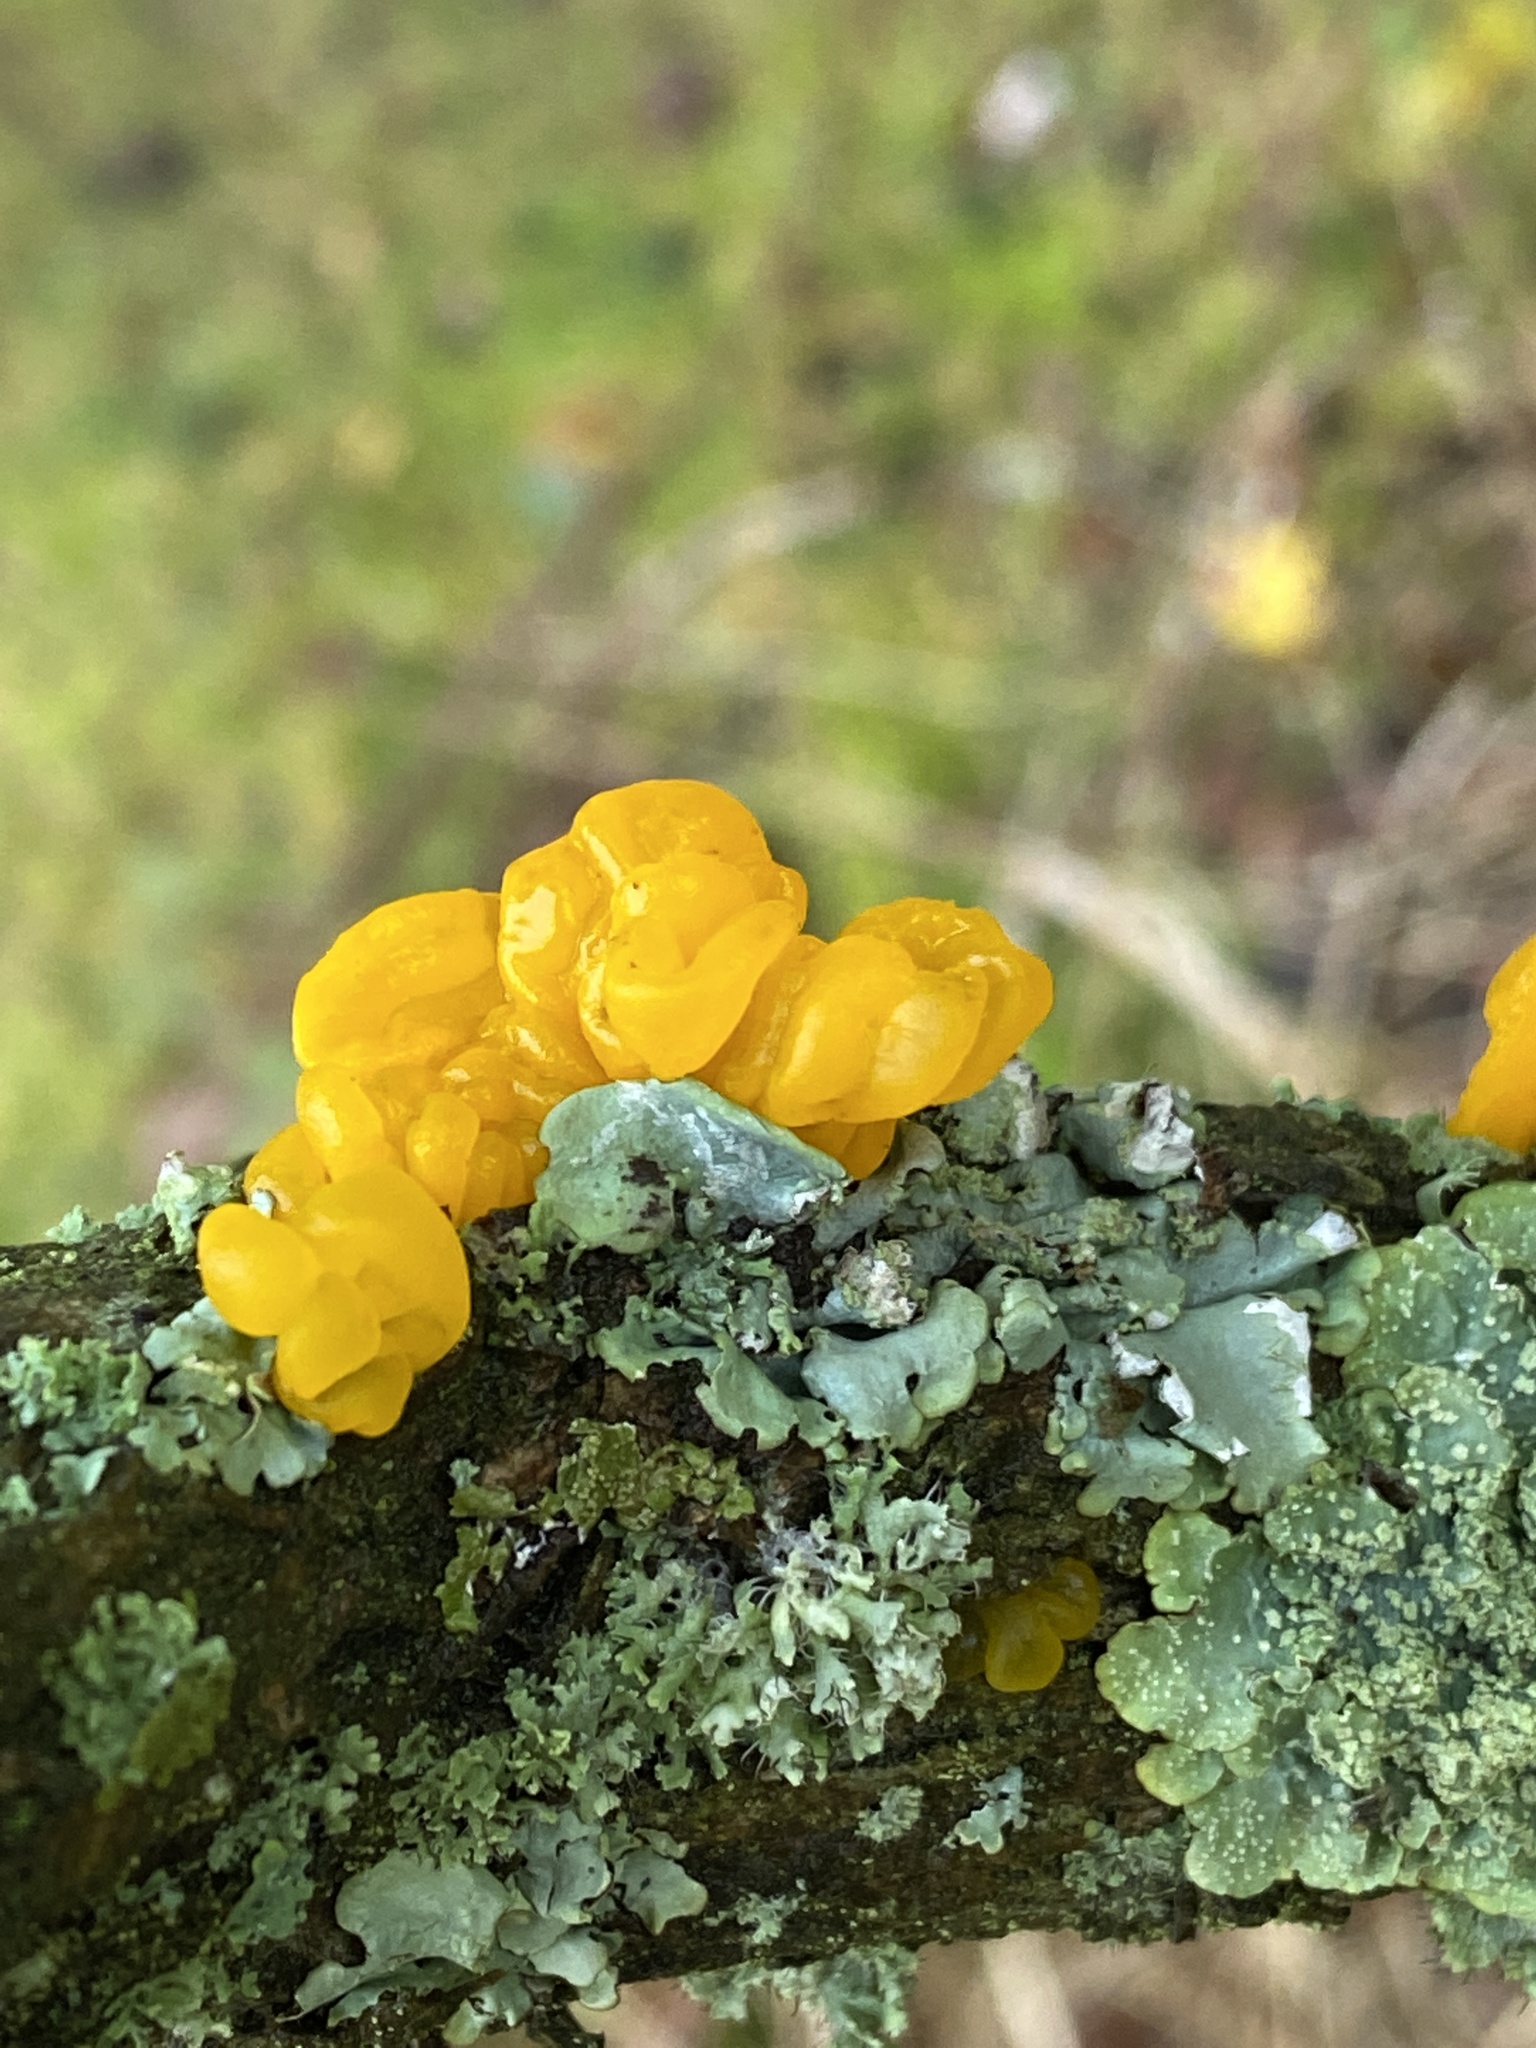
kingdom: Fungi
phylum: Basidiomycota
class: Tremellomycetes
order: Tremellales
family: Tremellaceae
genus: Tremella
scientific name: Tremella mesenterica
